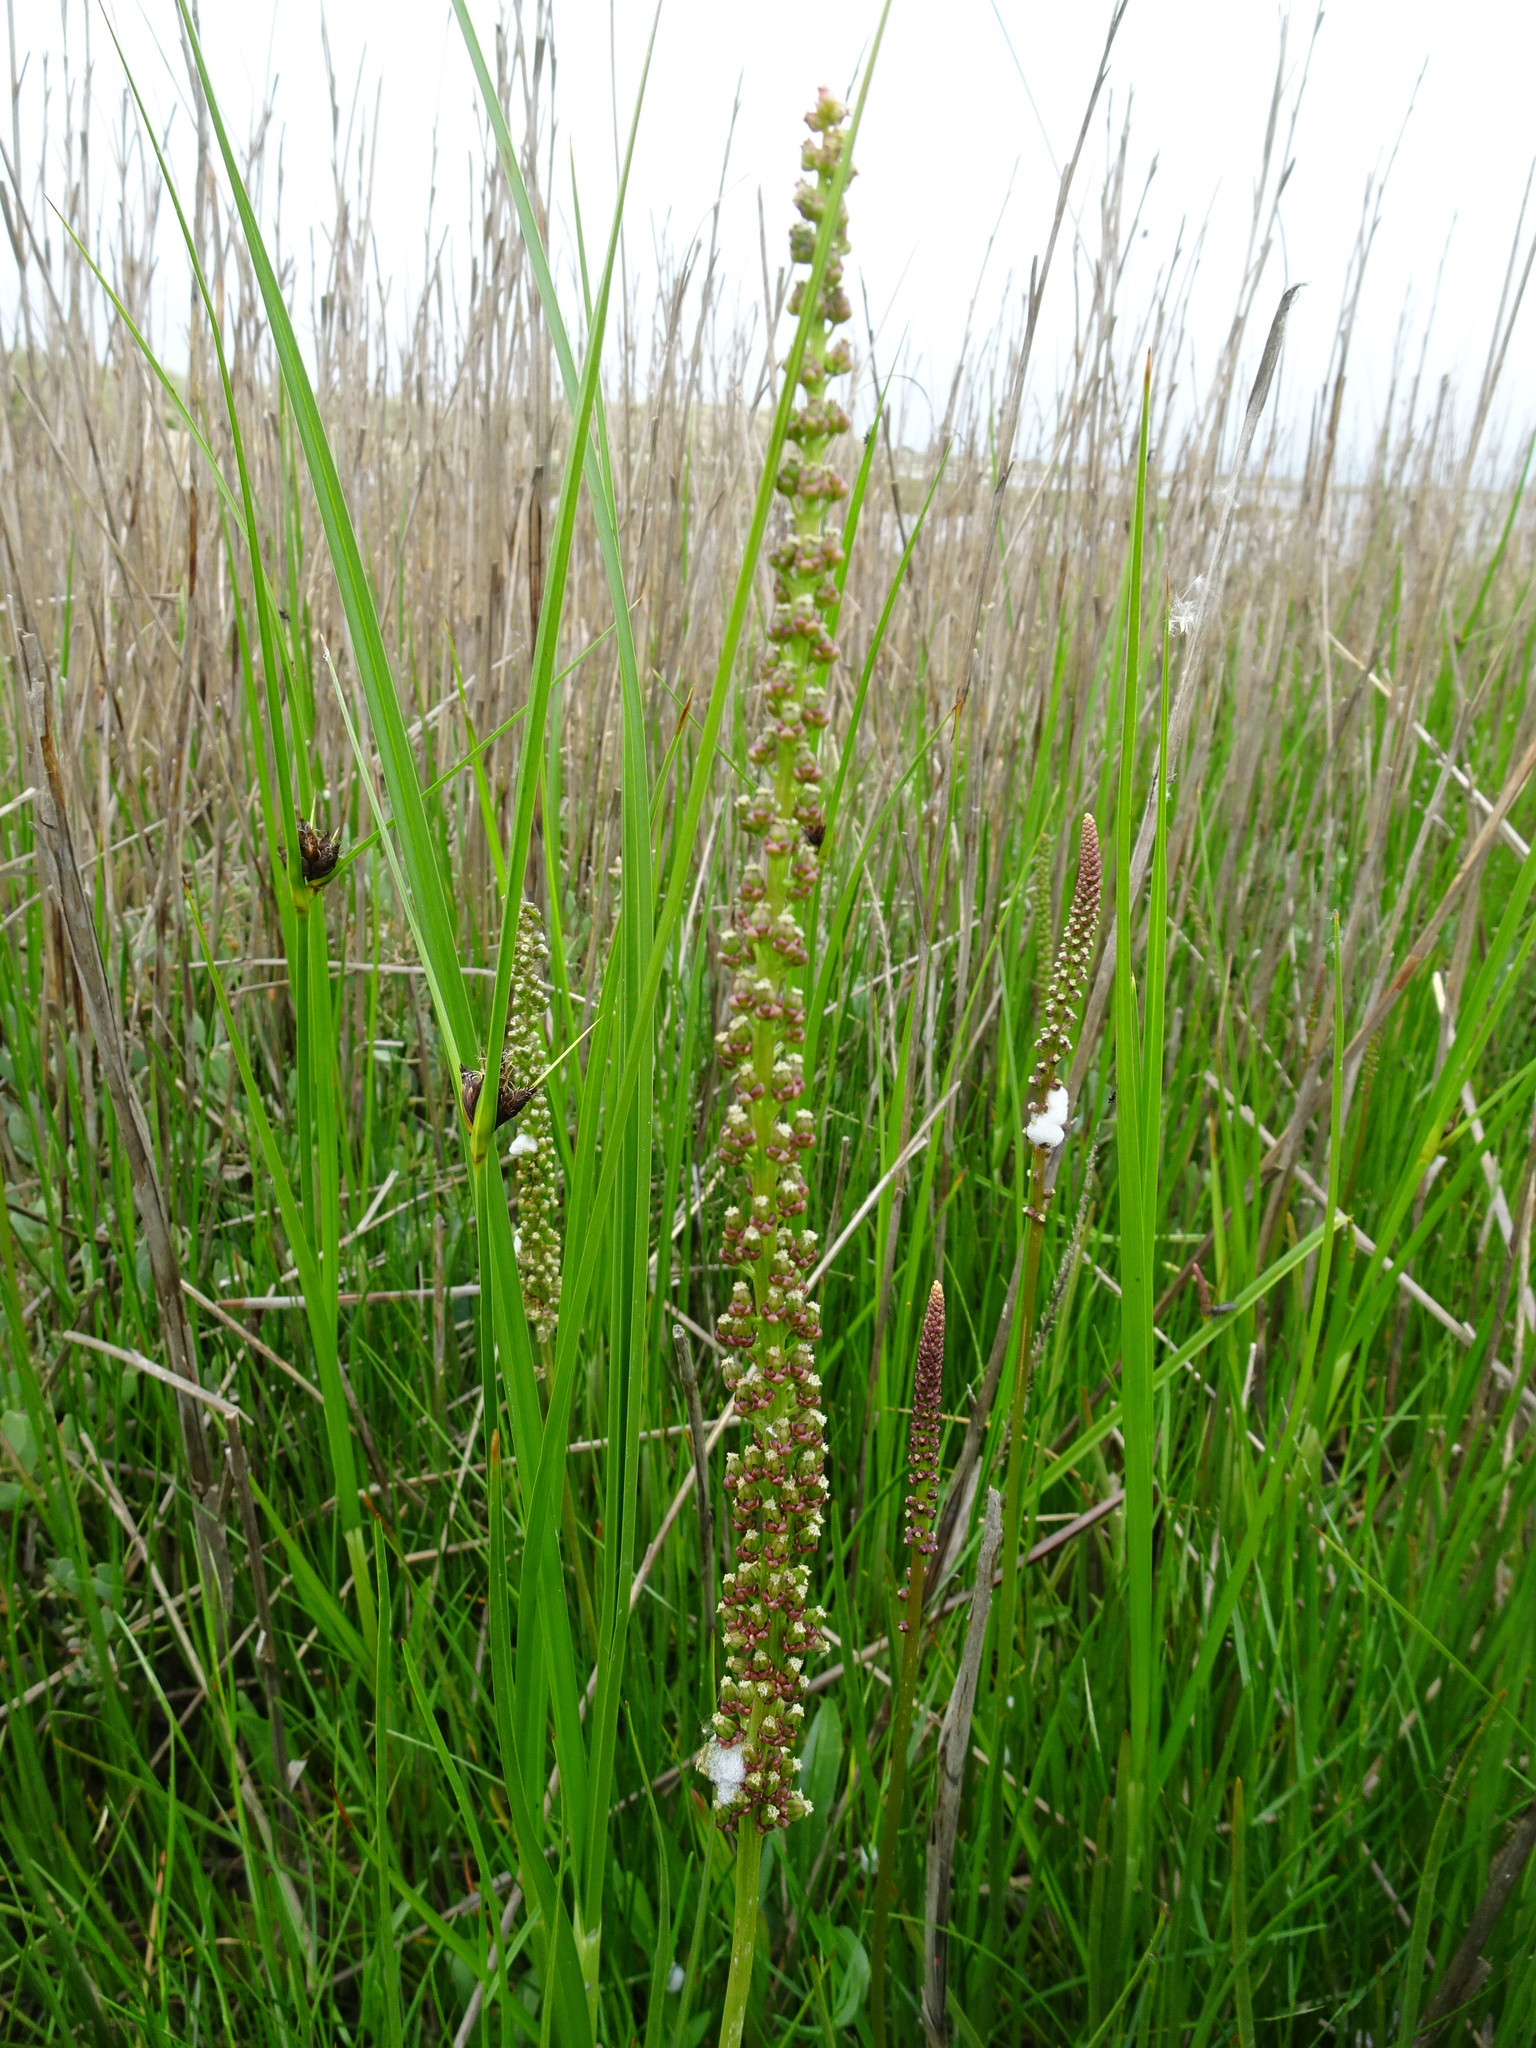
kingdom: Plantae
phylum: Tracheophyta
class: Liliopsida
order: Alismatales
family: Juncaginaceae
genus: Triglochin
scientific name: Triglochin maritima
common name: Sea arrowgrass
